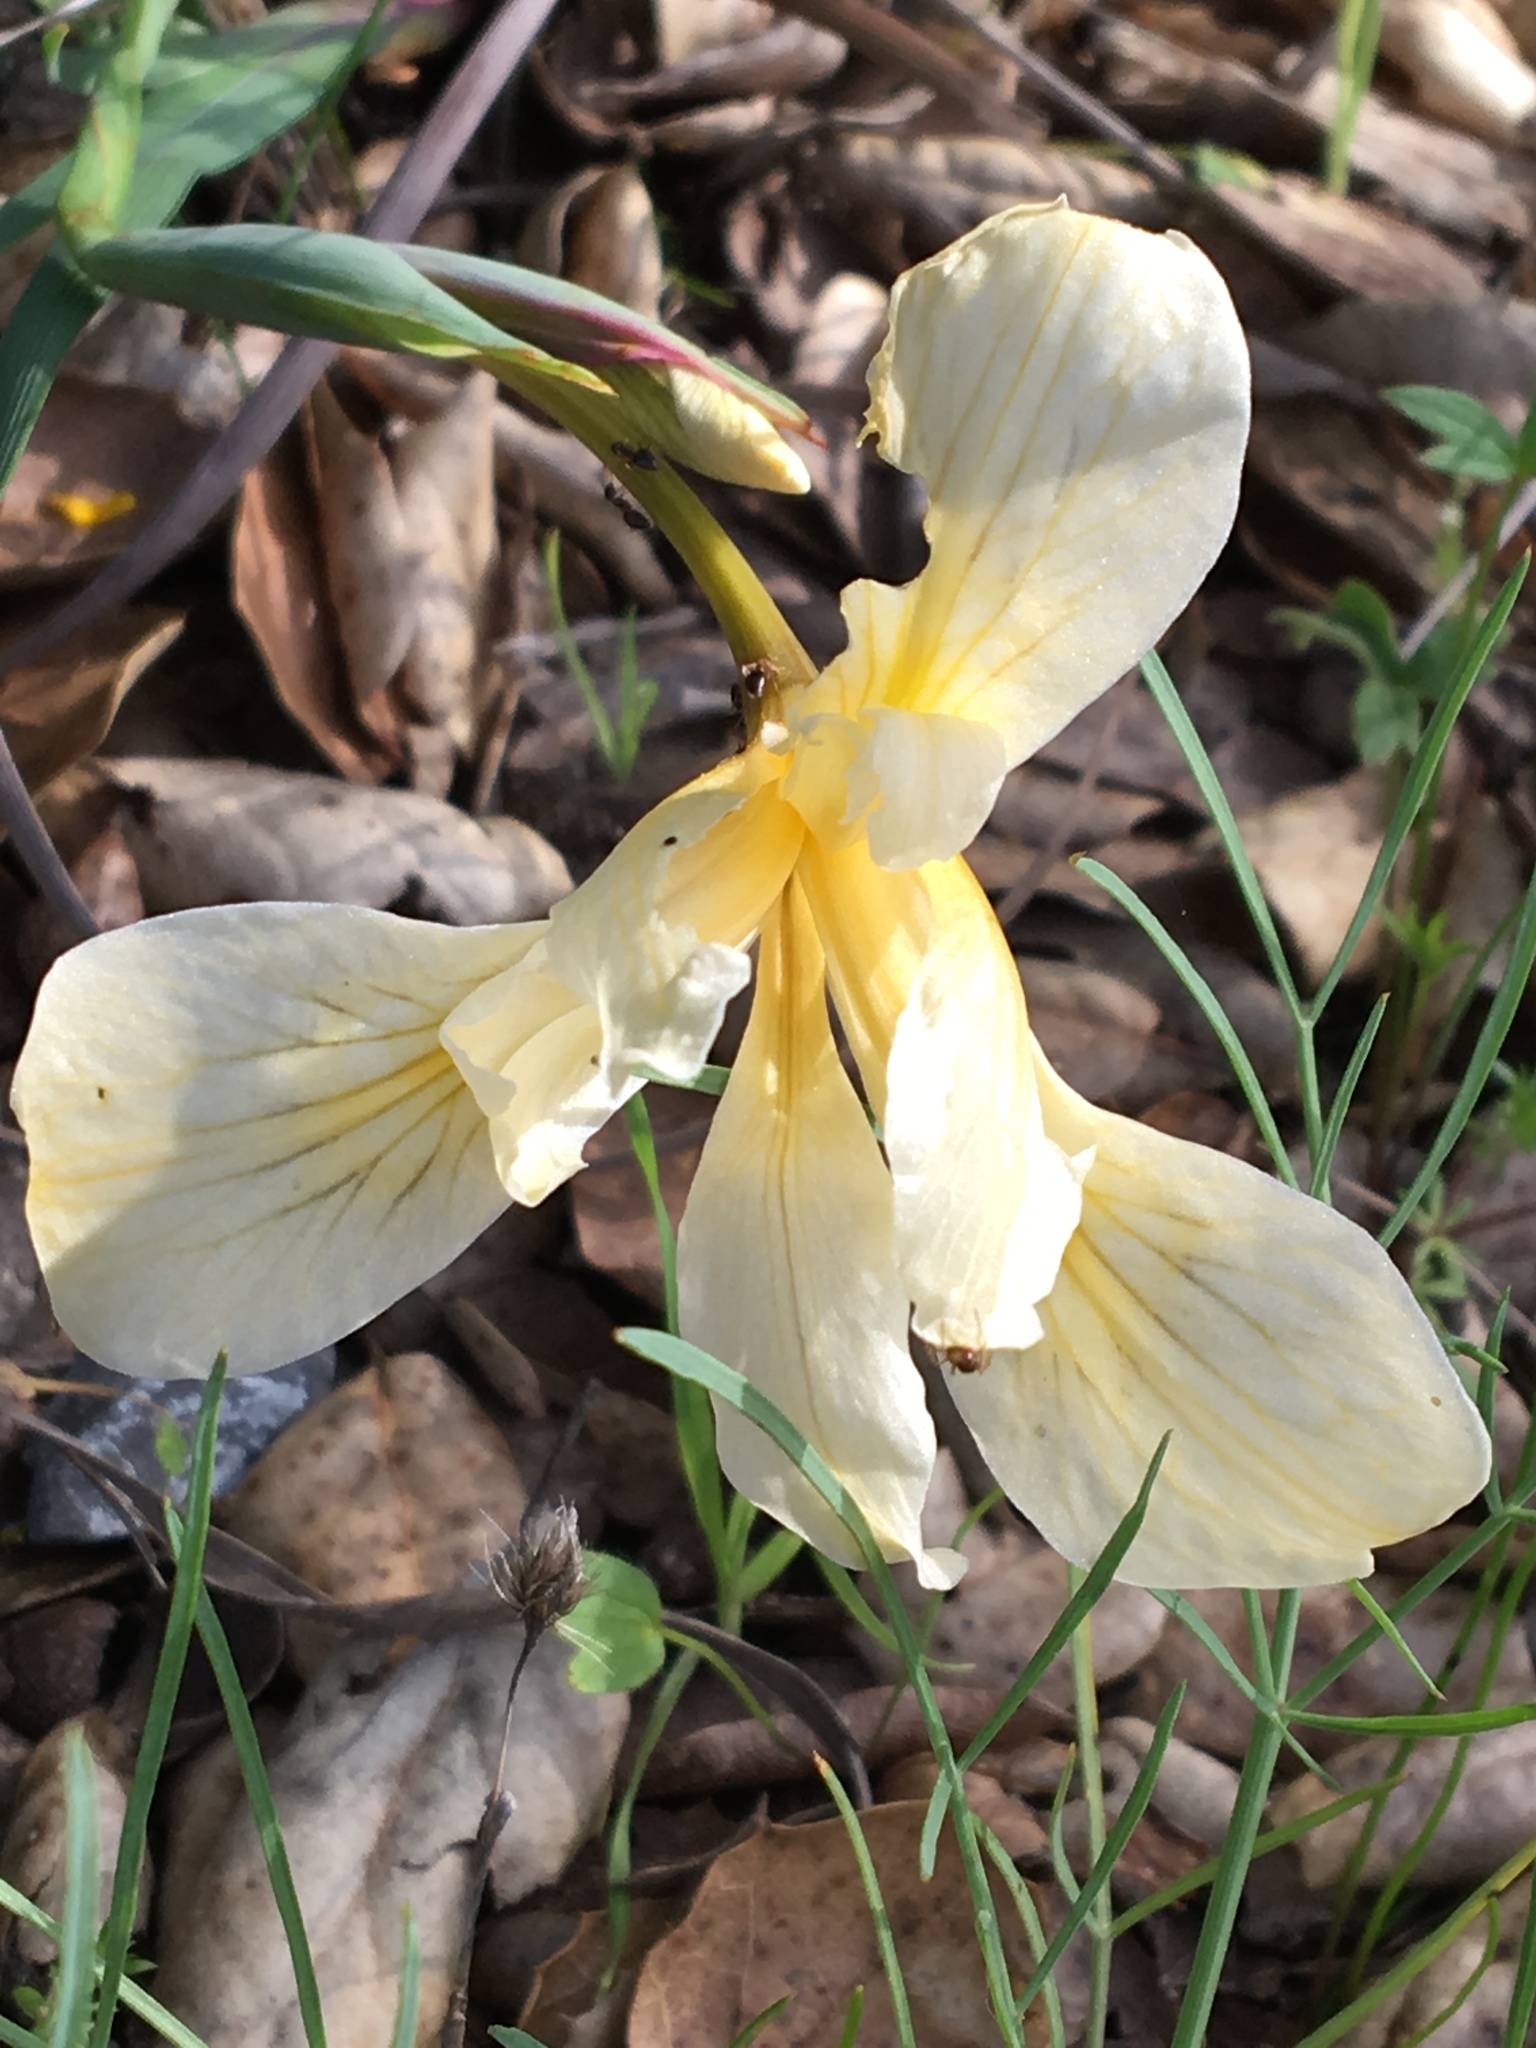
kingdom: Plantae
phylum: Tracheophyta
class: Liliopsida
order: Asparagales
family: Iridaceae
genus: Iris
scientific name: Iris fernaldii
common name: Fernald's iris
